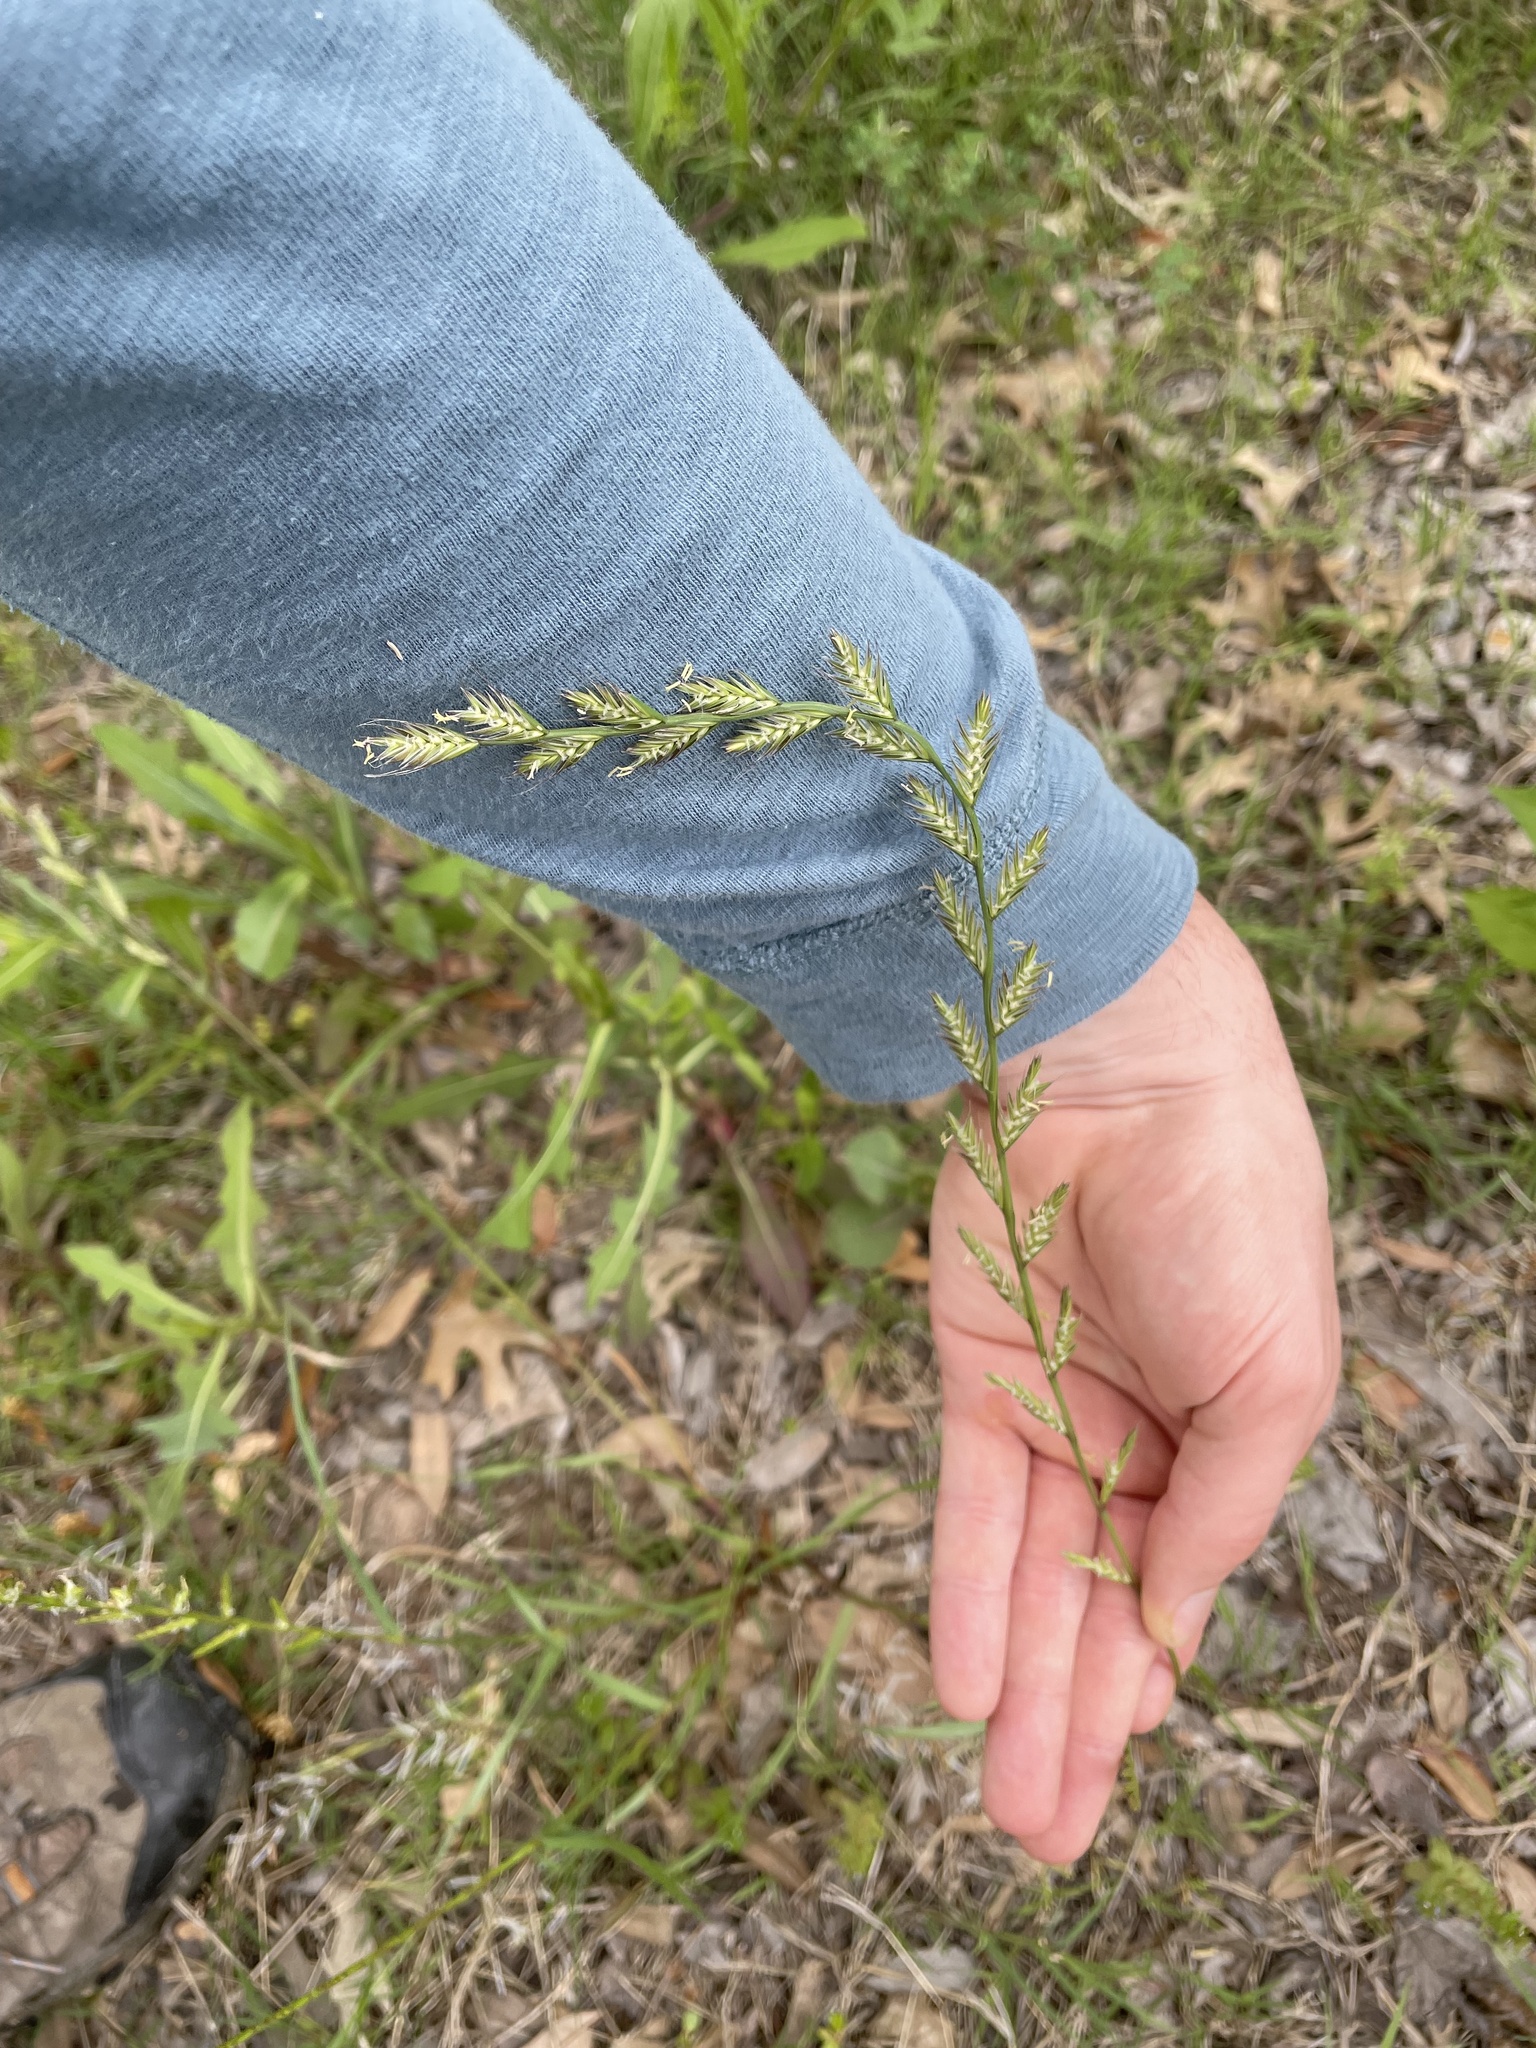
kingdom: Plantae
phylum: Tracheophyta
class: Liliopsida
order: Poales
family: Poaceae
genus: Lolium
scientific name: Lolium perenne
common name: Perennial ryegrass
